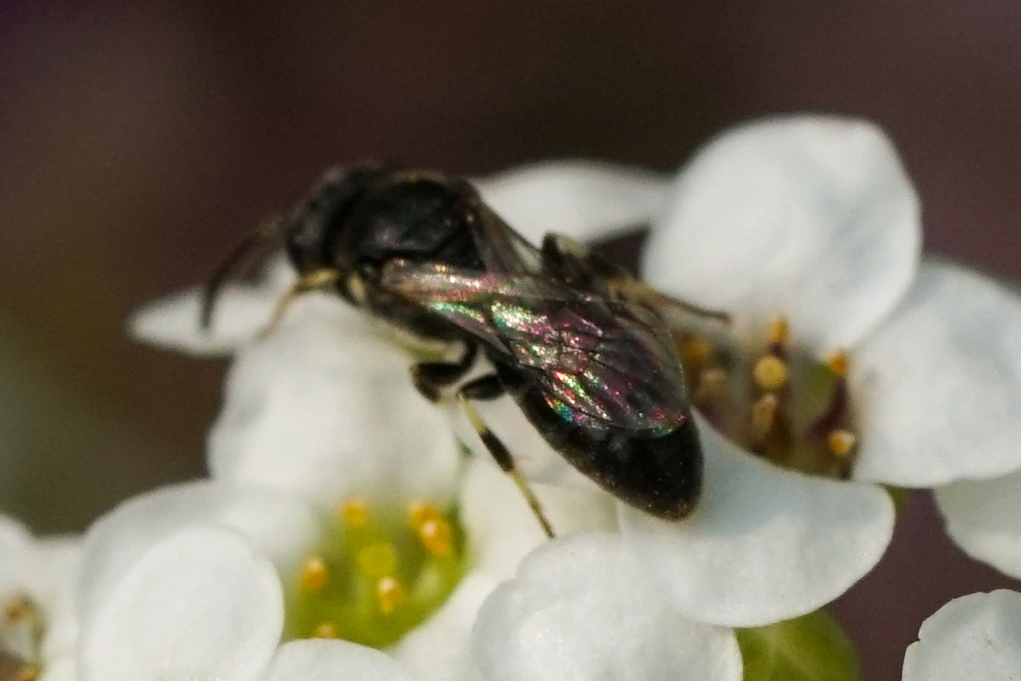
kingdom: Animalia
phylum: Arthropoda
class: Insecta
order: Hymenoptera
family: Colletidae
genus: Hylaeus
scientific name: Hylaeus mesillae
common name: Mesilla masked bee
